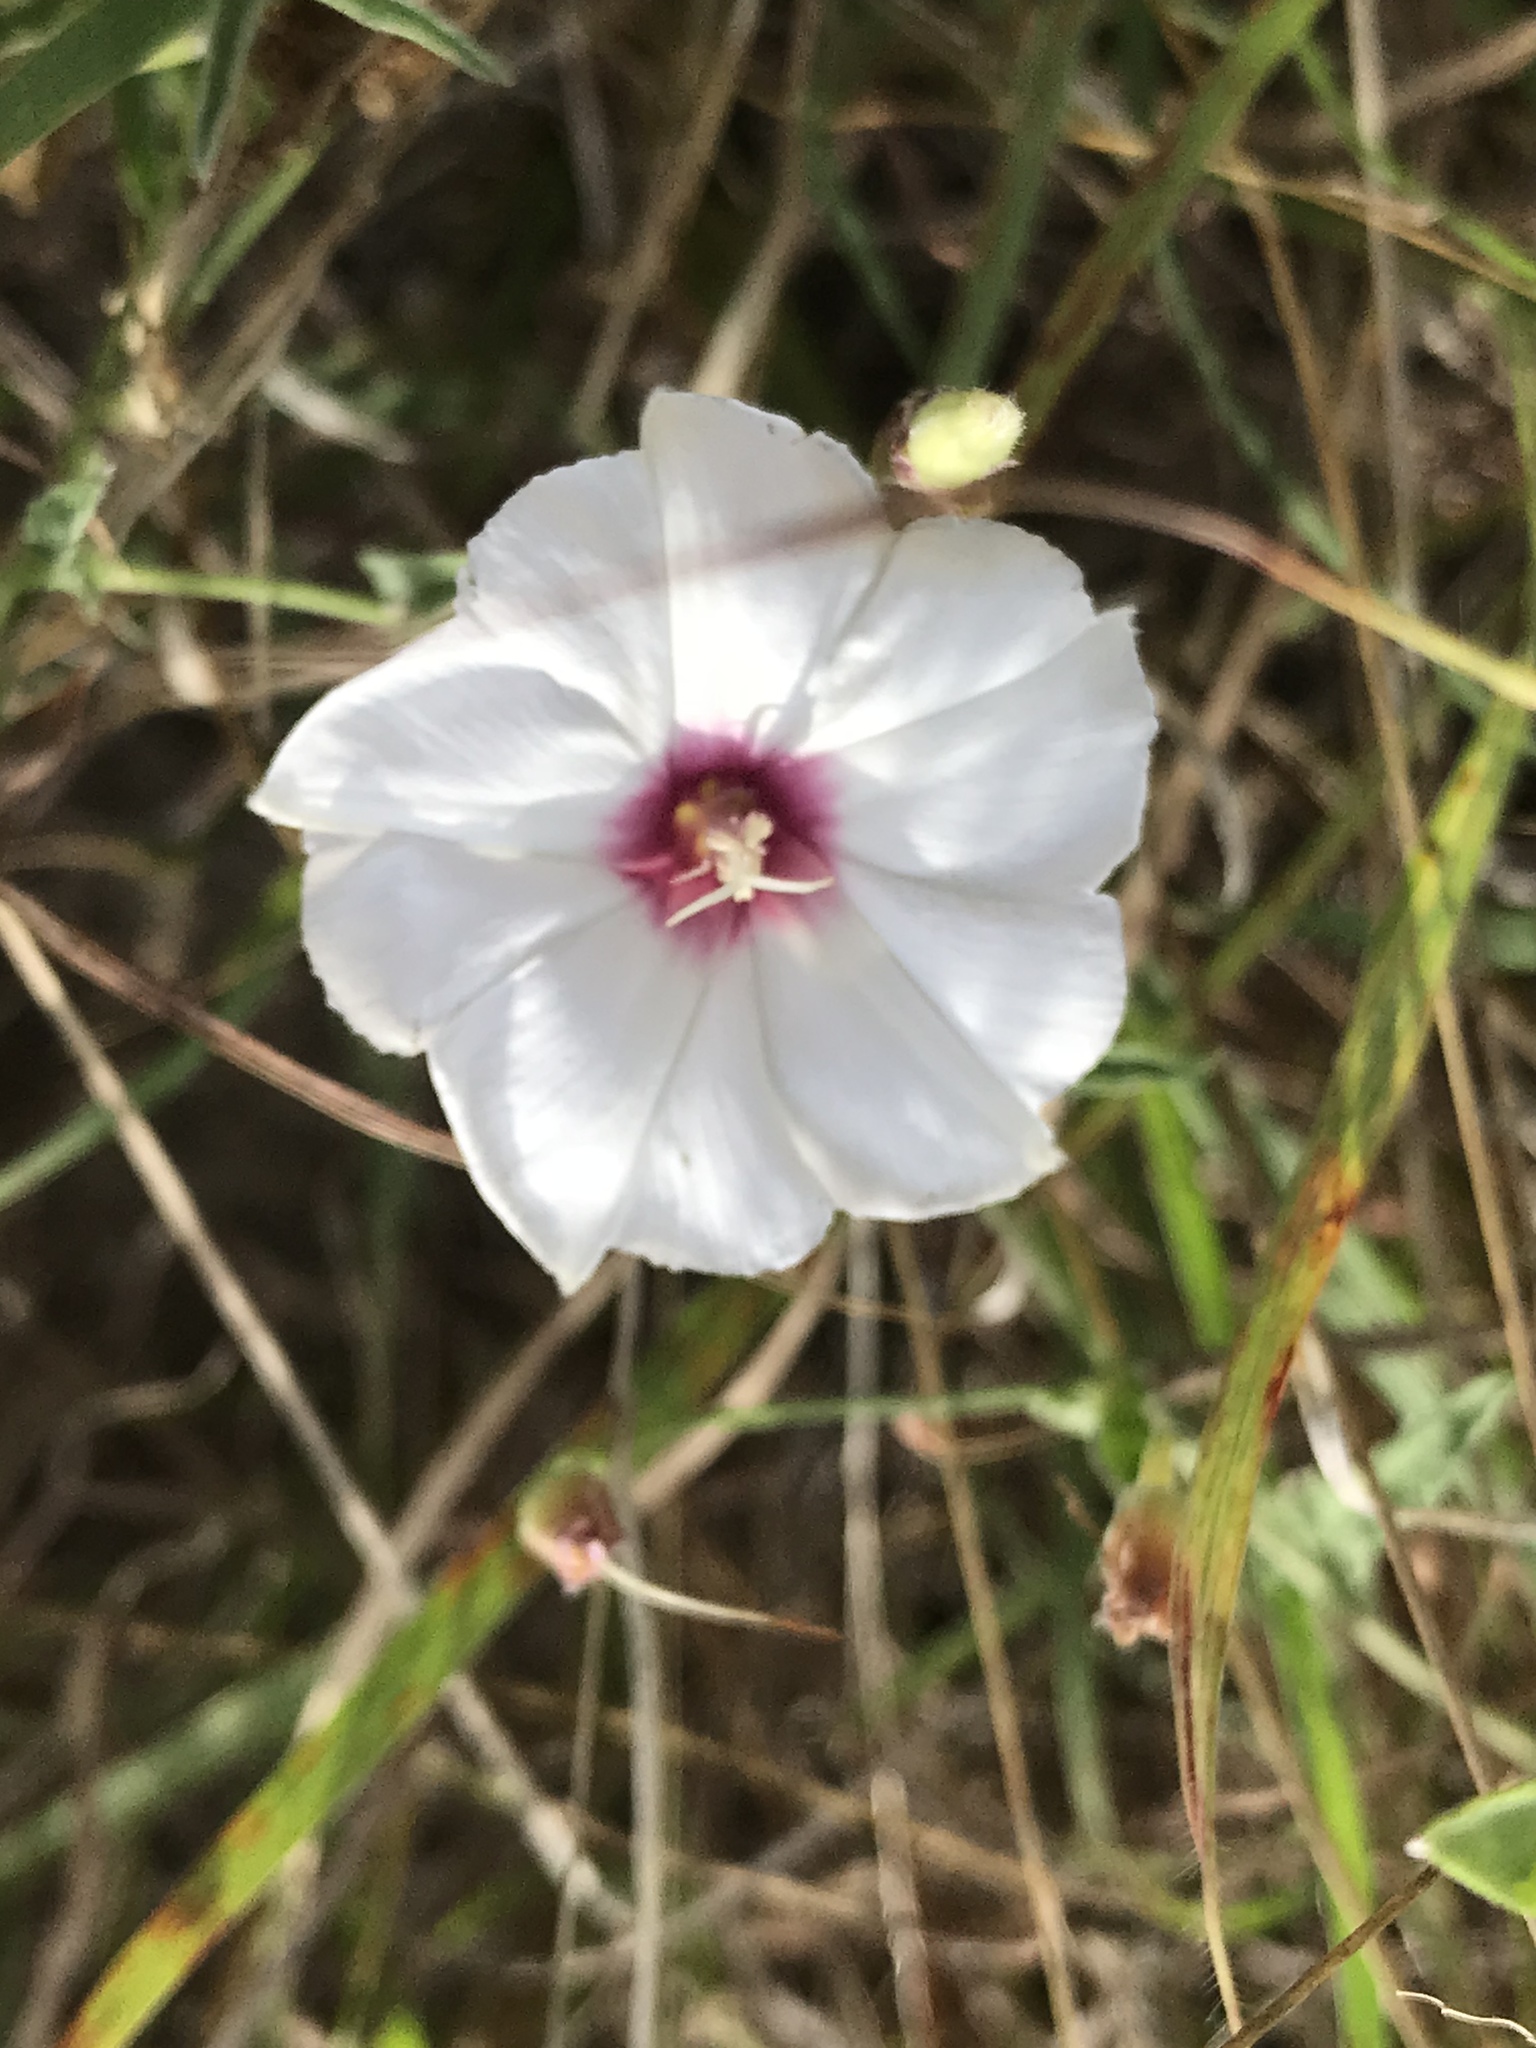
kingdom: Plantae
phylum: Tracheophyta
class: Magnoliopsida
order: Solanales
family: Convolvulaceae
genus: Convolvulus
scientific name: Convolvulus equitans
